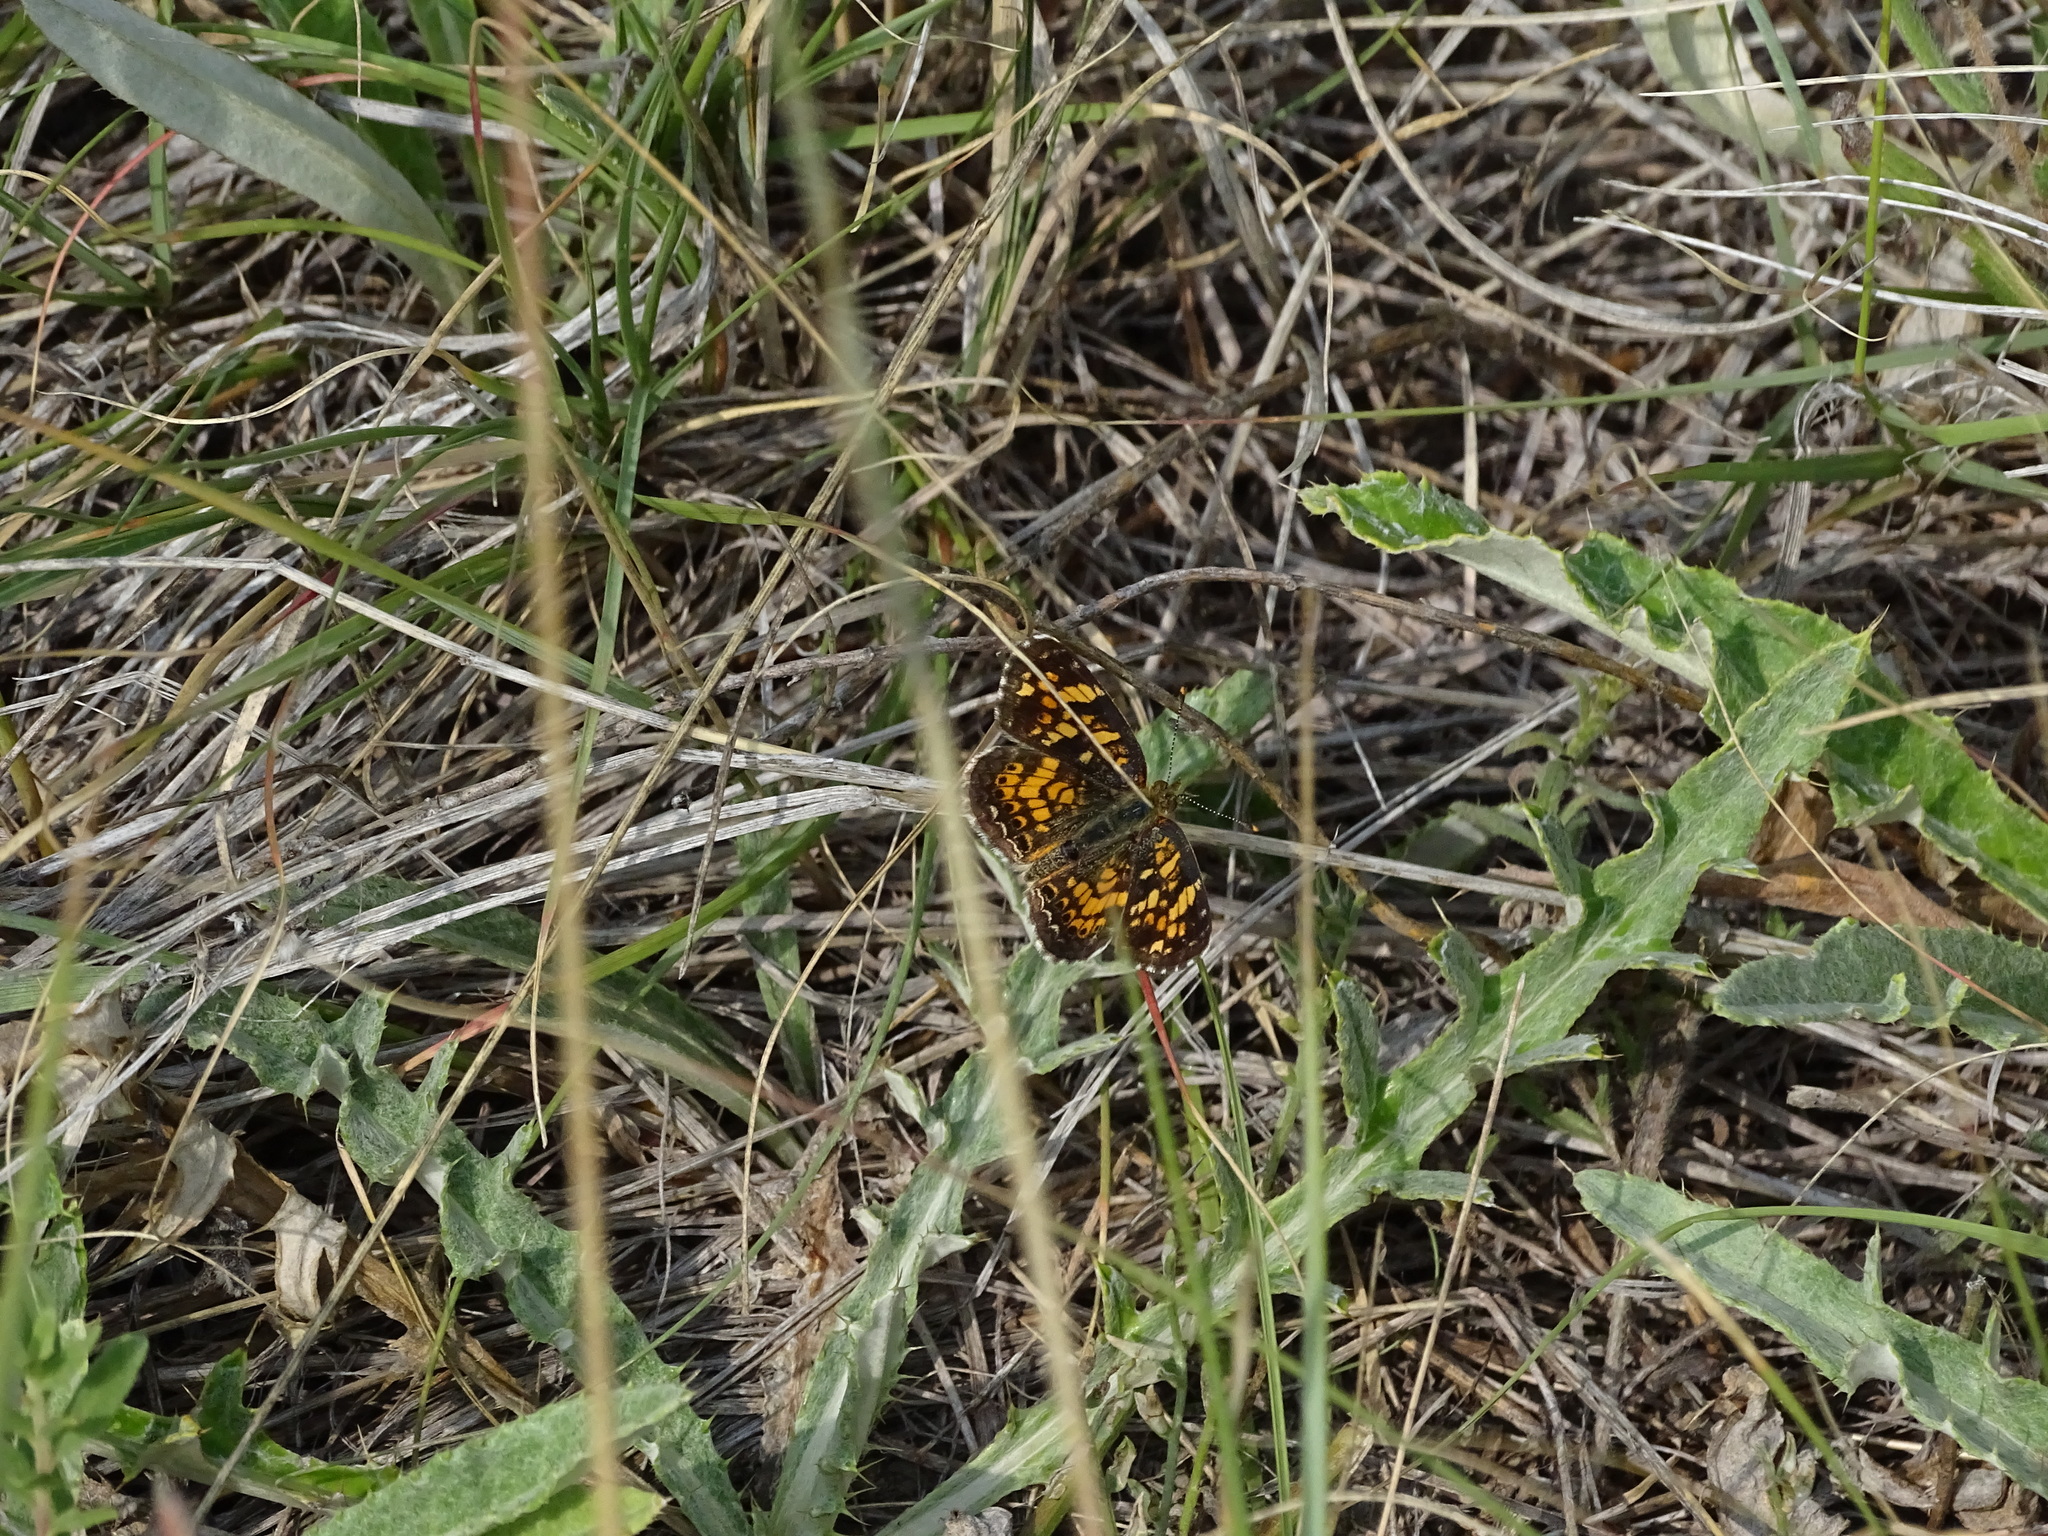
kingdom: Animalia
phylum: Arthropoda
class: Insecta
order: Lepidoptera
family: Nymphalidae
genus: Phyciodes
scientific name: Phyciodes tharos
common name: Pearl crescent
